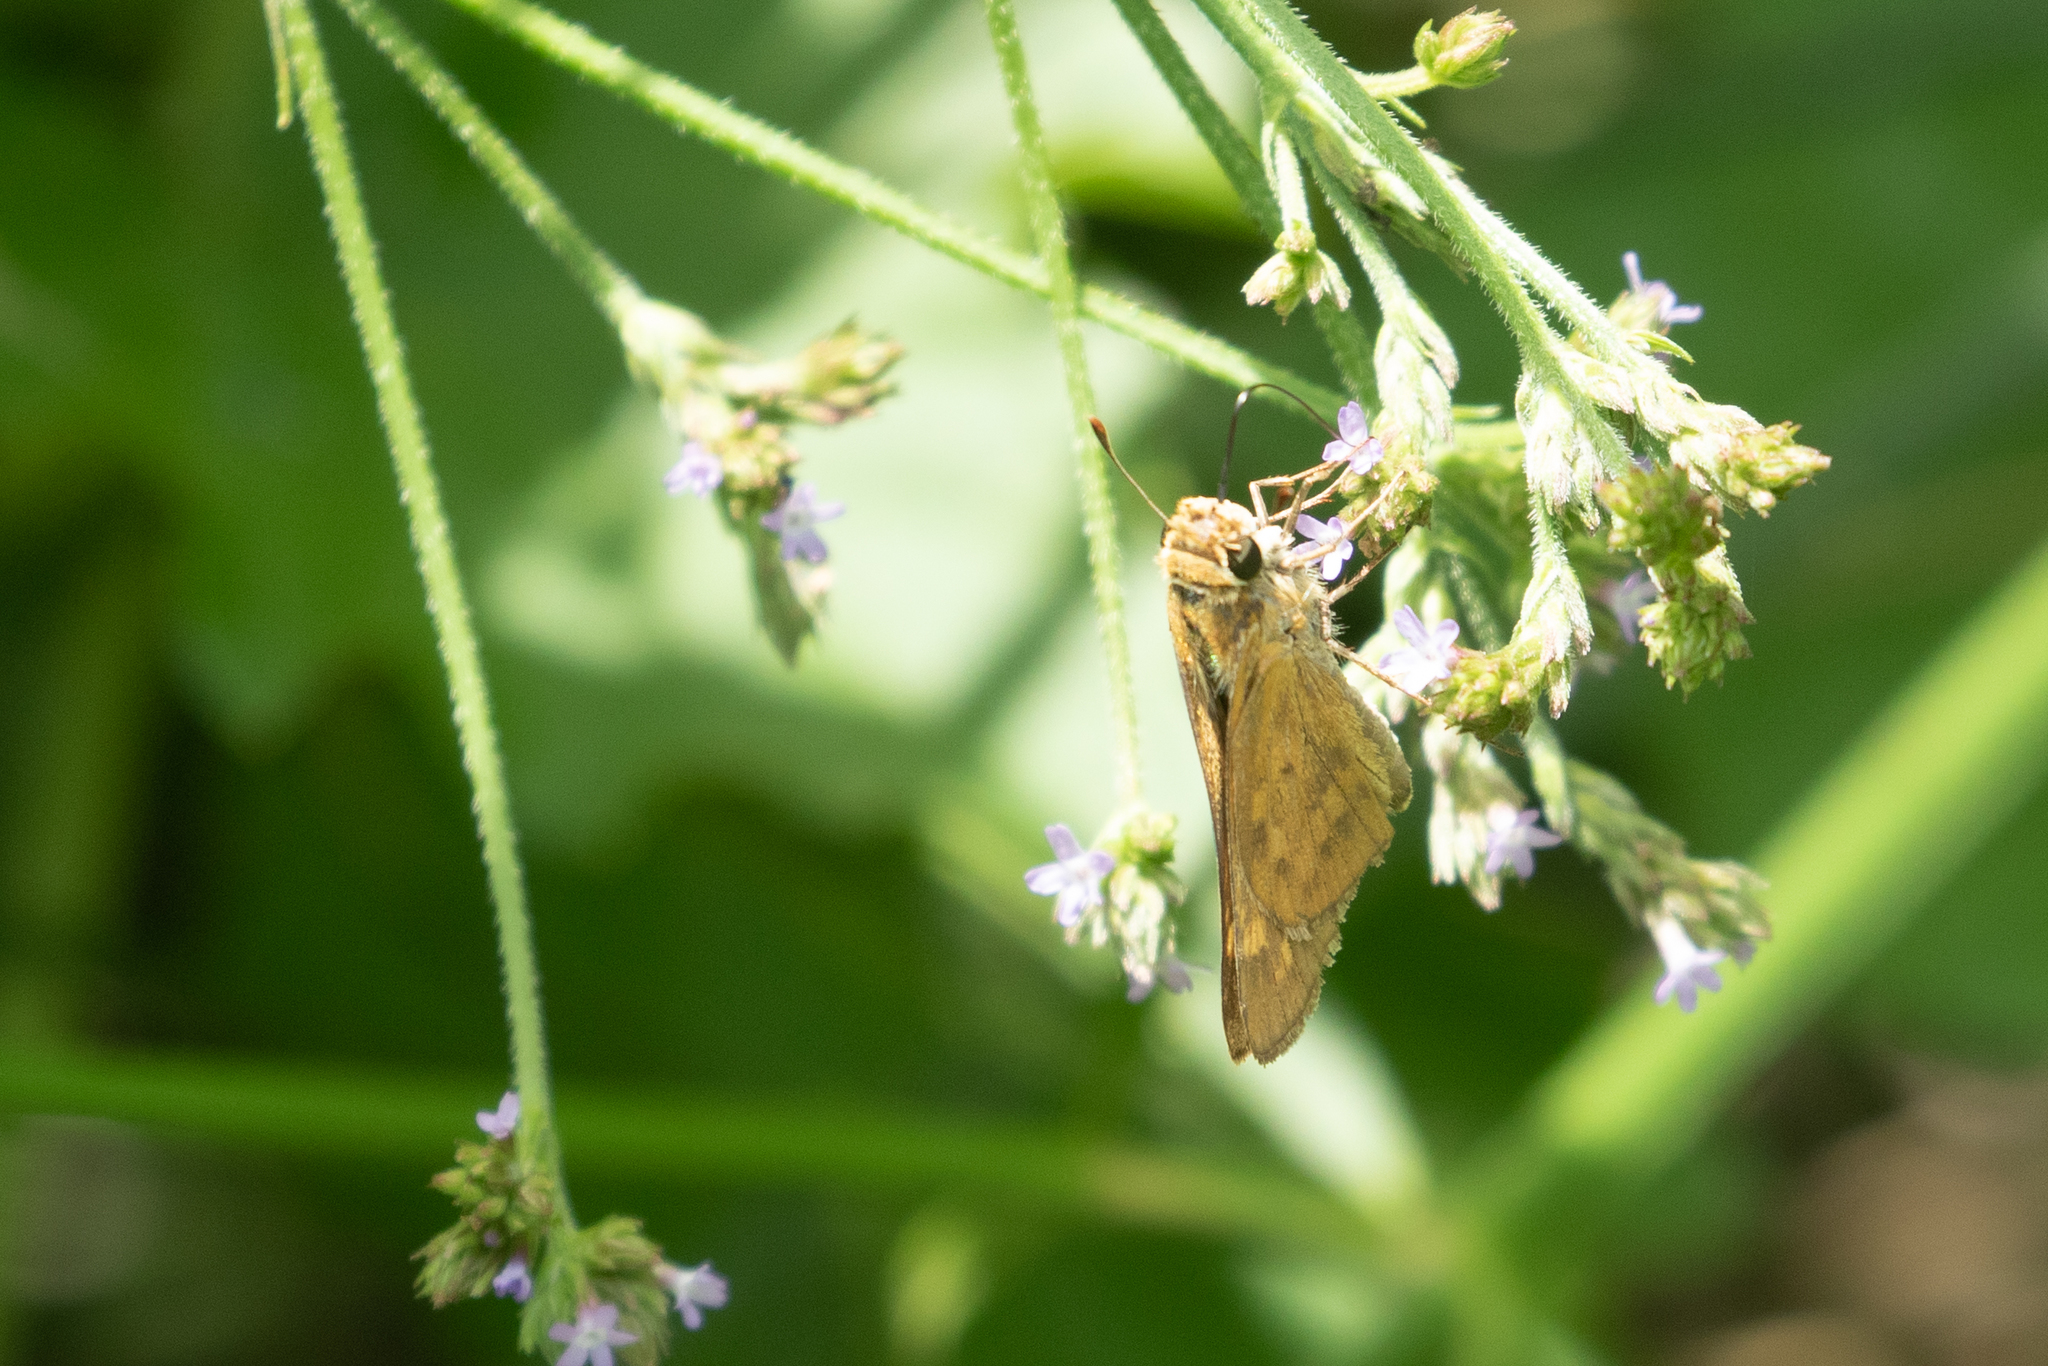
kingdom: Animalia
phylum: Arthropoda
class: Insecta
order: Lepidoptera
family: Hesperiidae
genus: Hylephila
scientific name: Hylephila phyleus
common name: Fiery skipper
